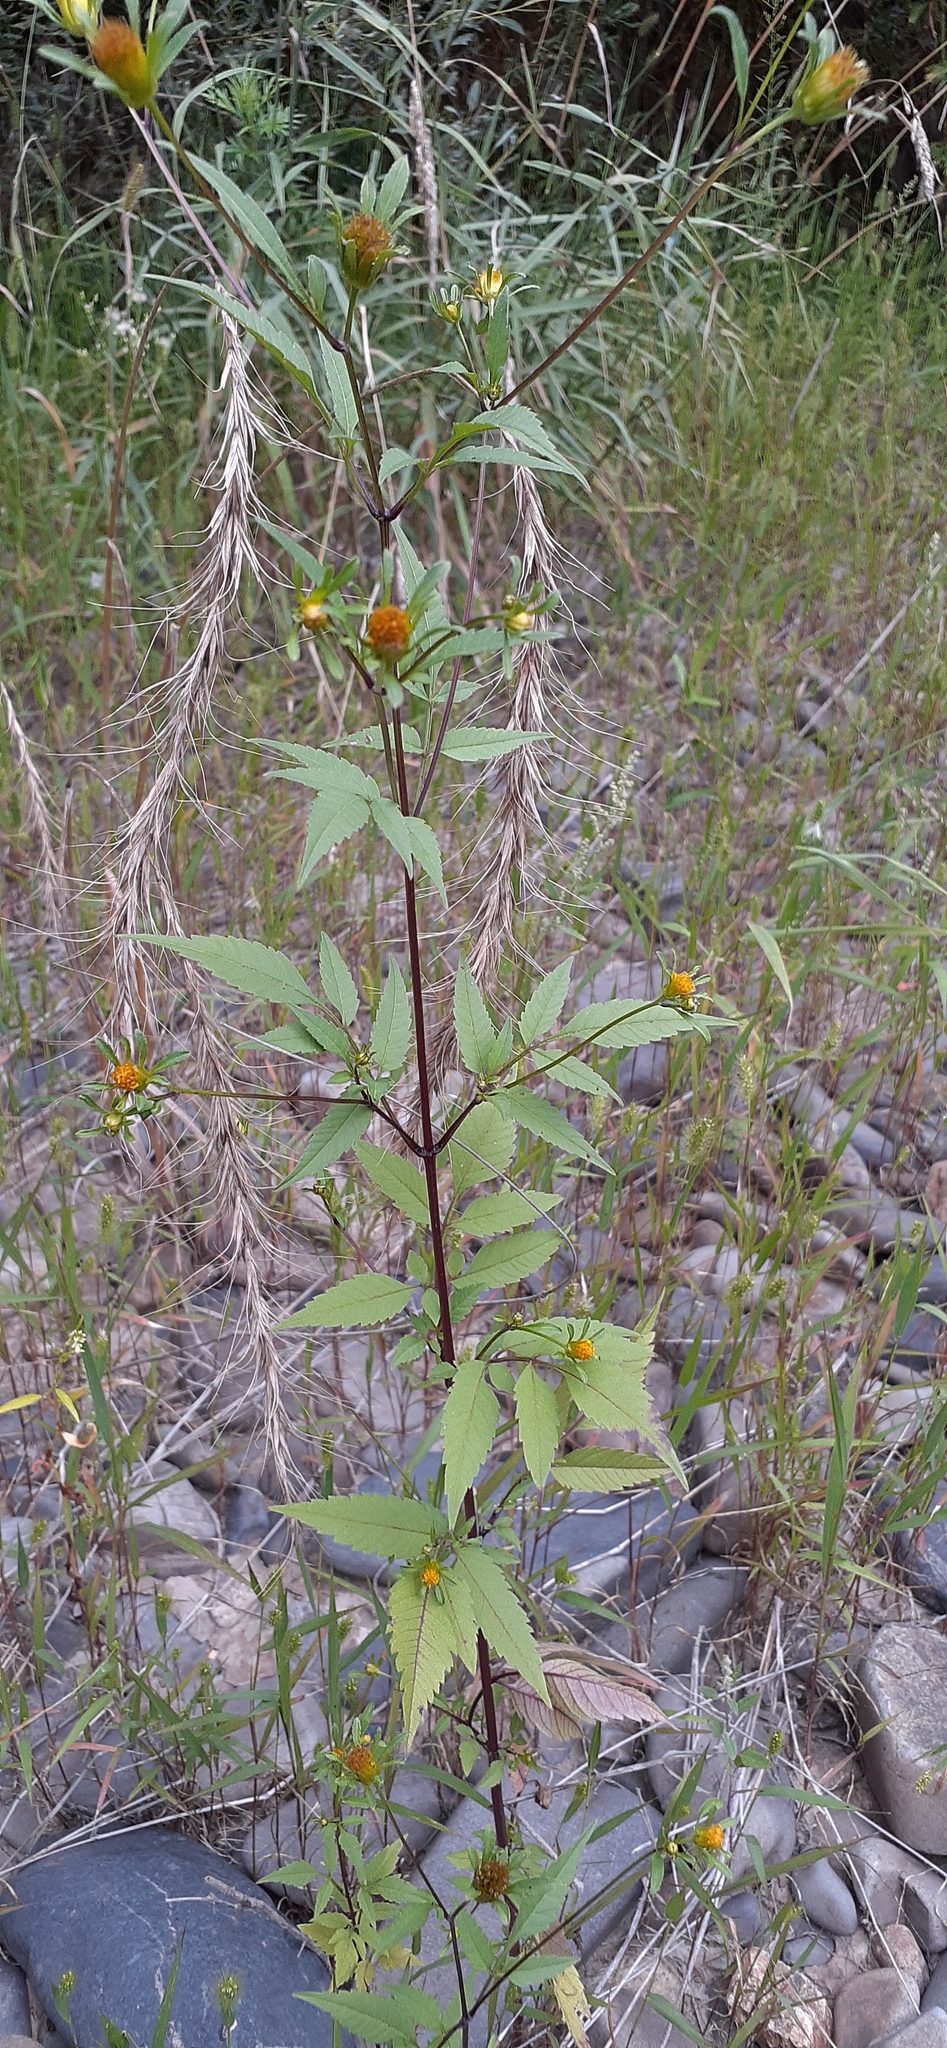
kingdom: Plantae
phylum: Tracheophyta
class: Magnoliopsida
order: Asterales
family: Asteraceae
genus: Bidens
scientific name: Bidens frondosa
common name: Beggarticks
